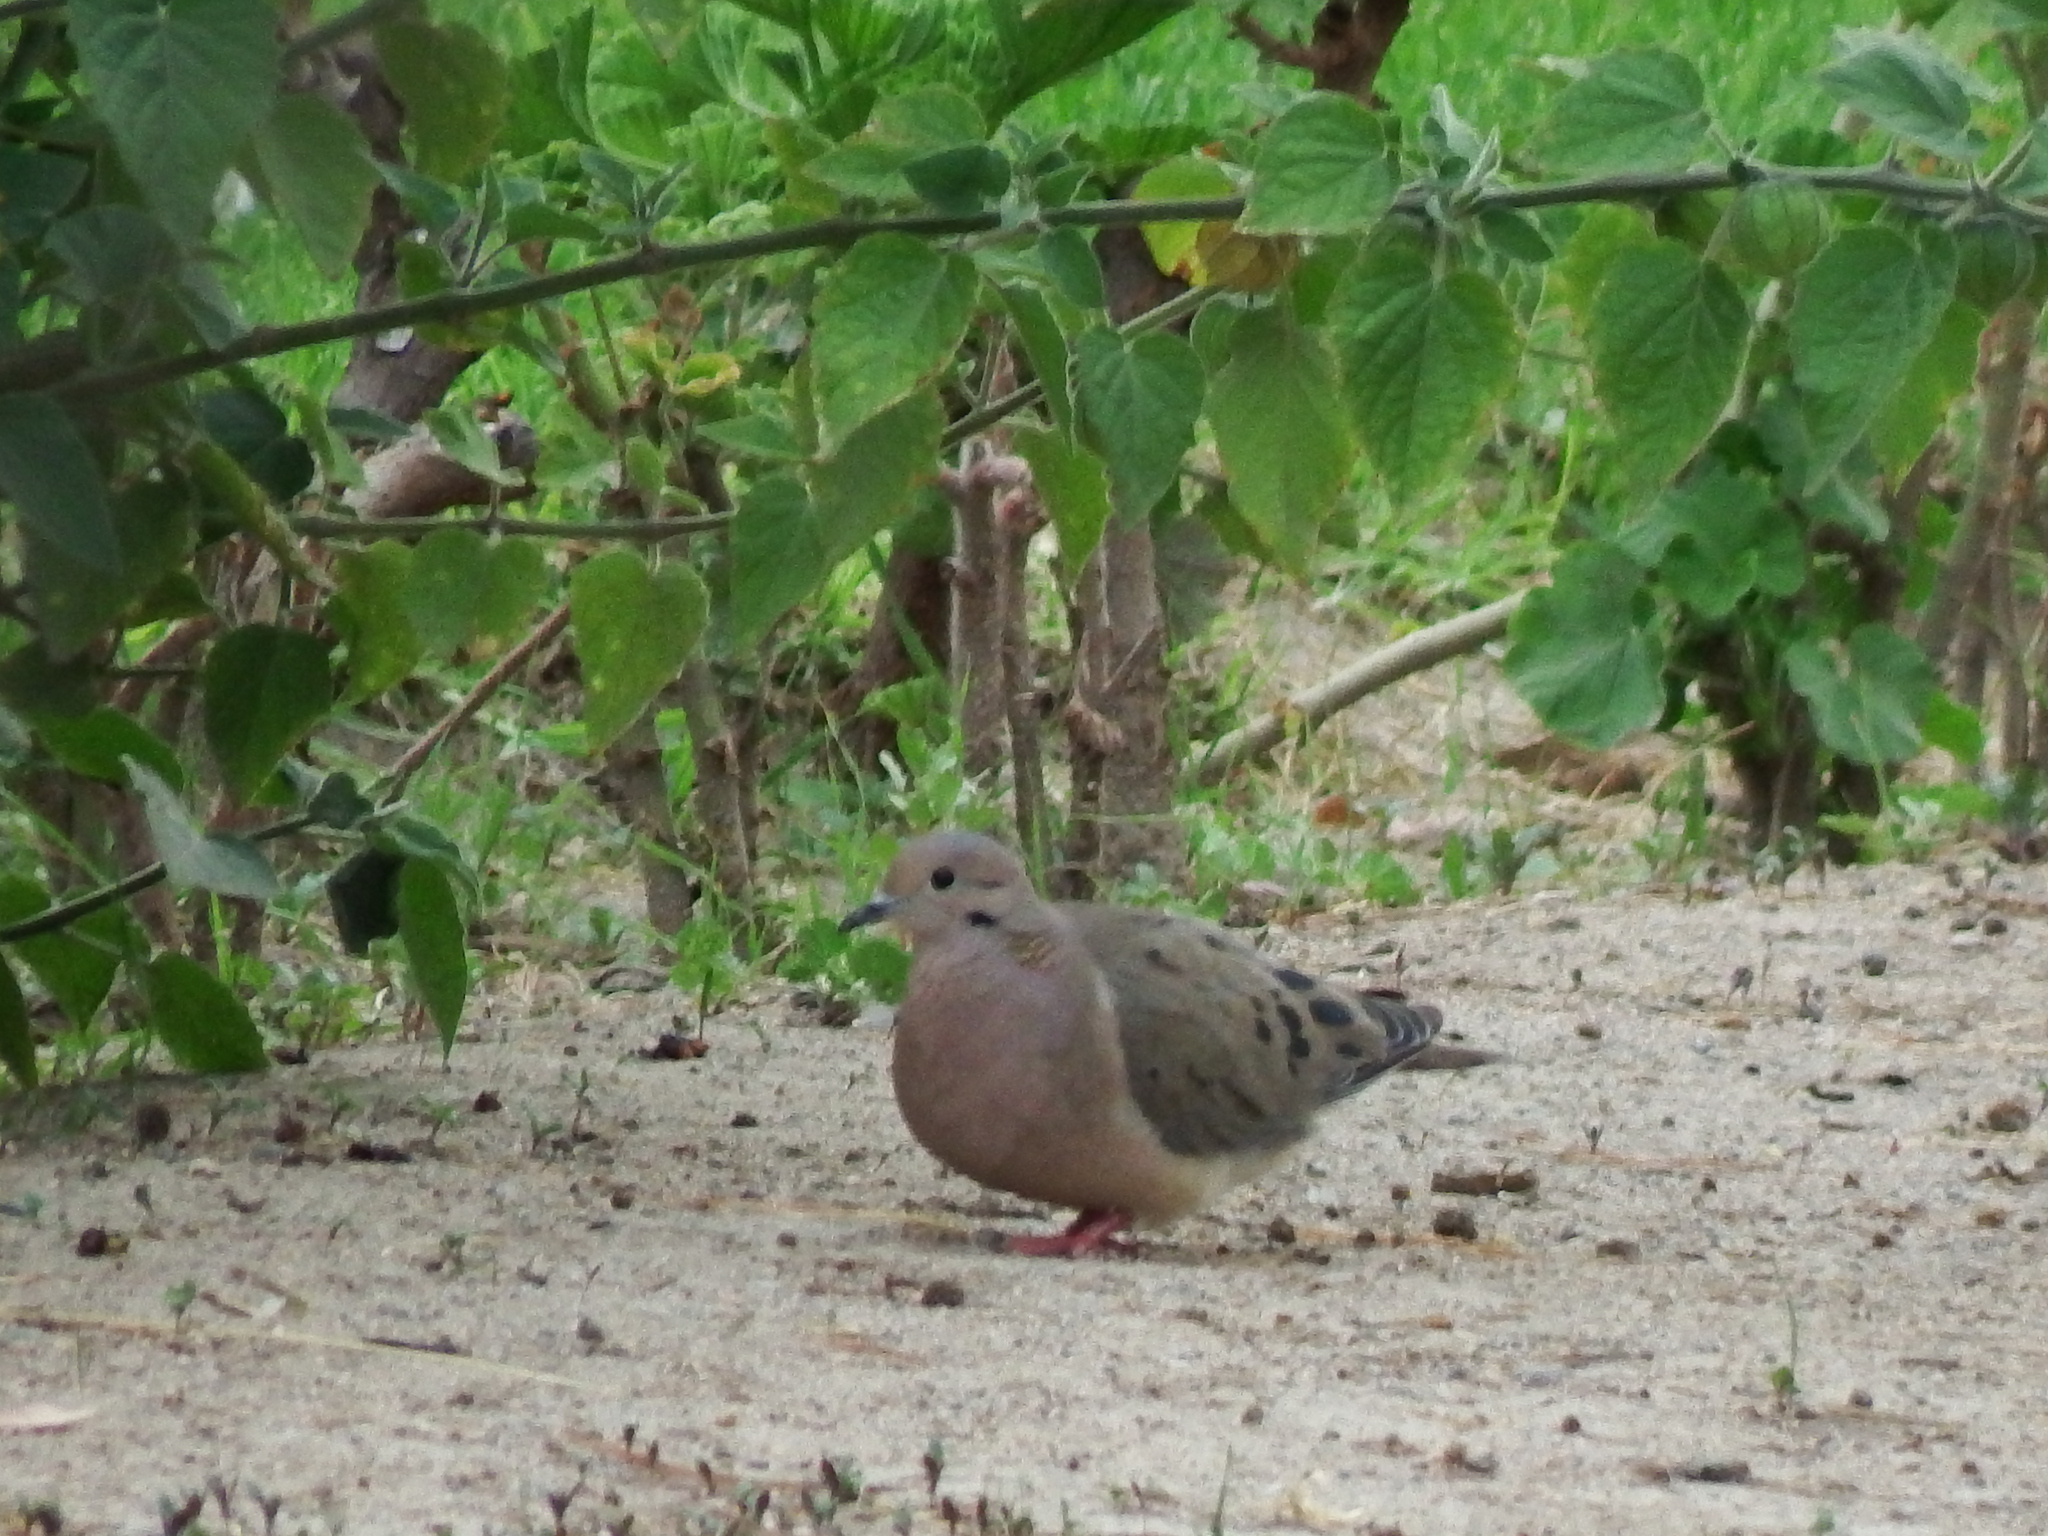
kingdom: Animalia
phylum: Chordata
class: Aves
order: Columbiformes
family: Columbidae
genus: Zenaida
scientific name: Zenaida auriculata
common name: Eared dove
